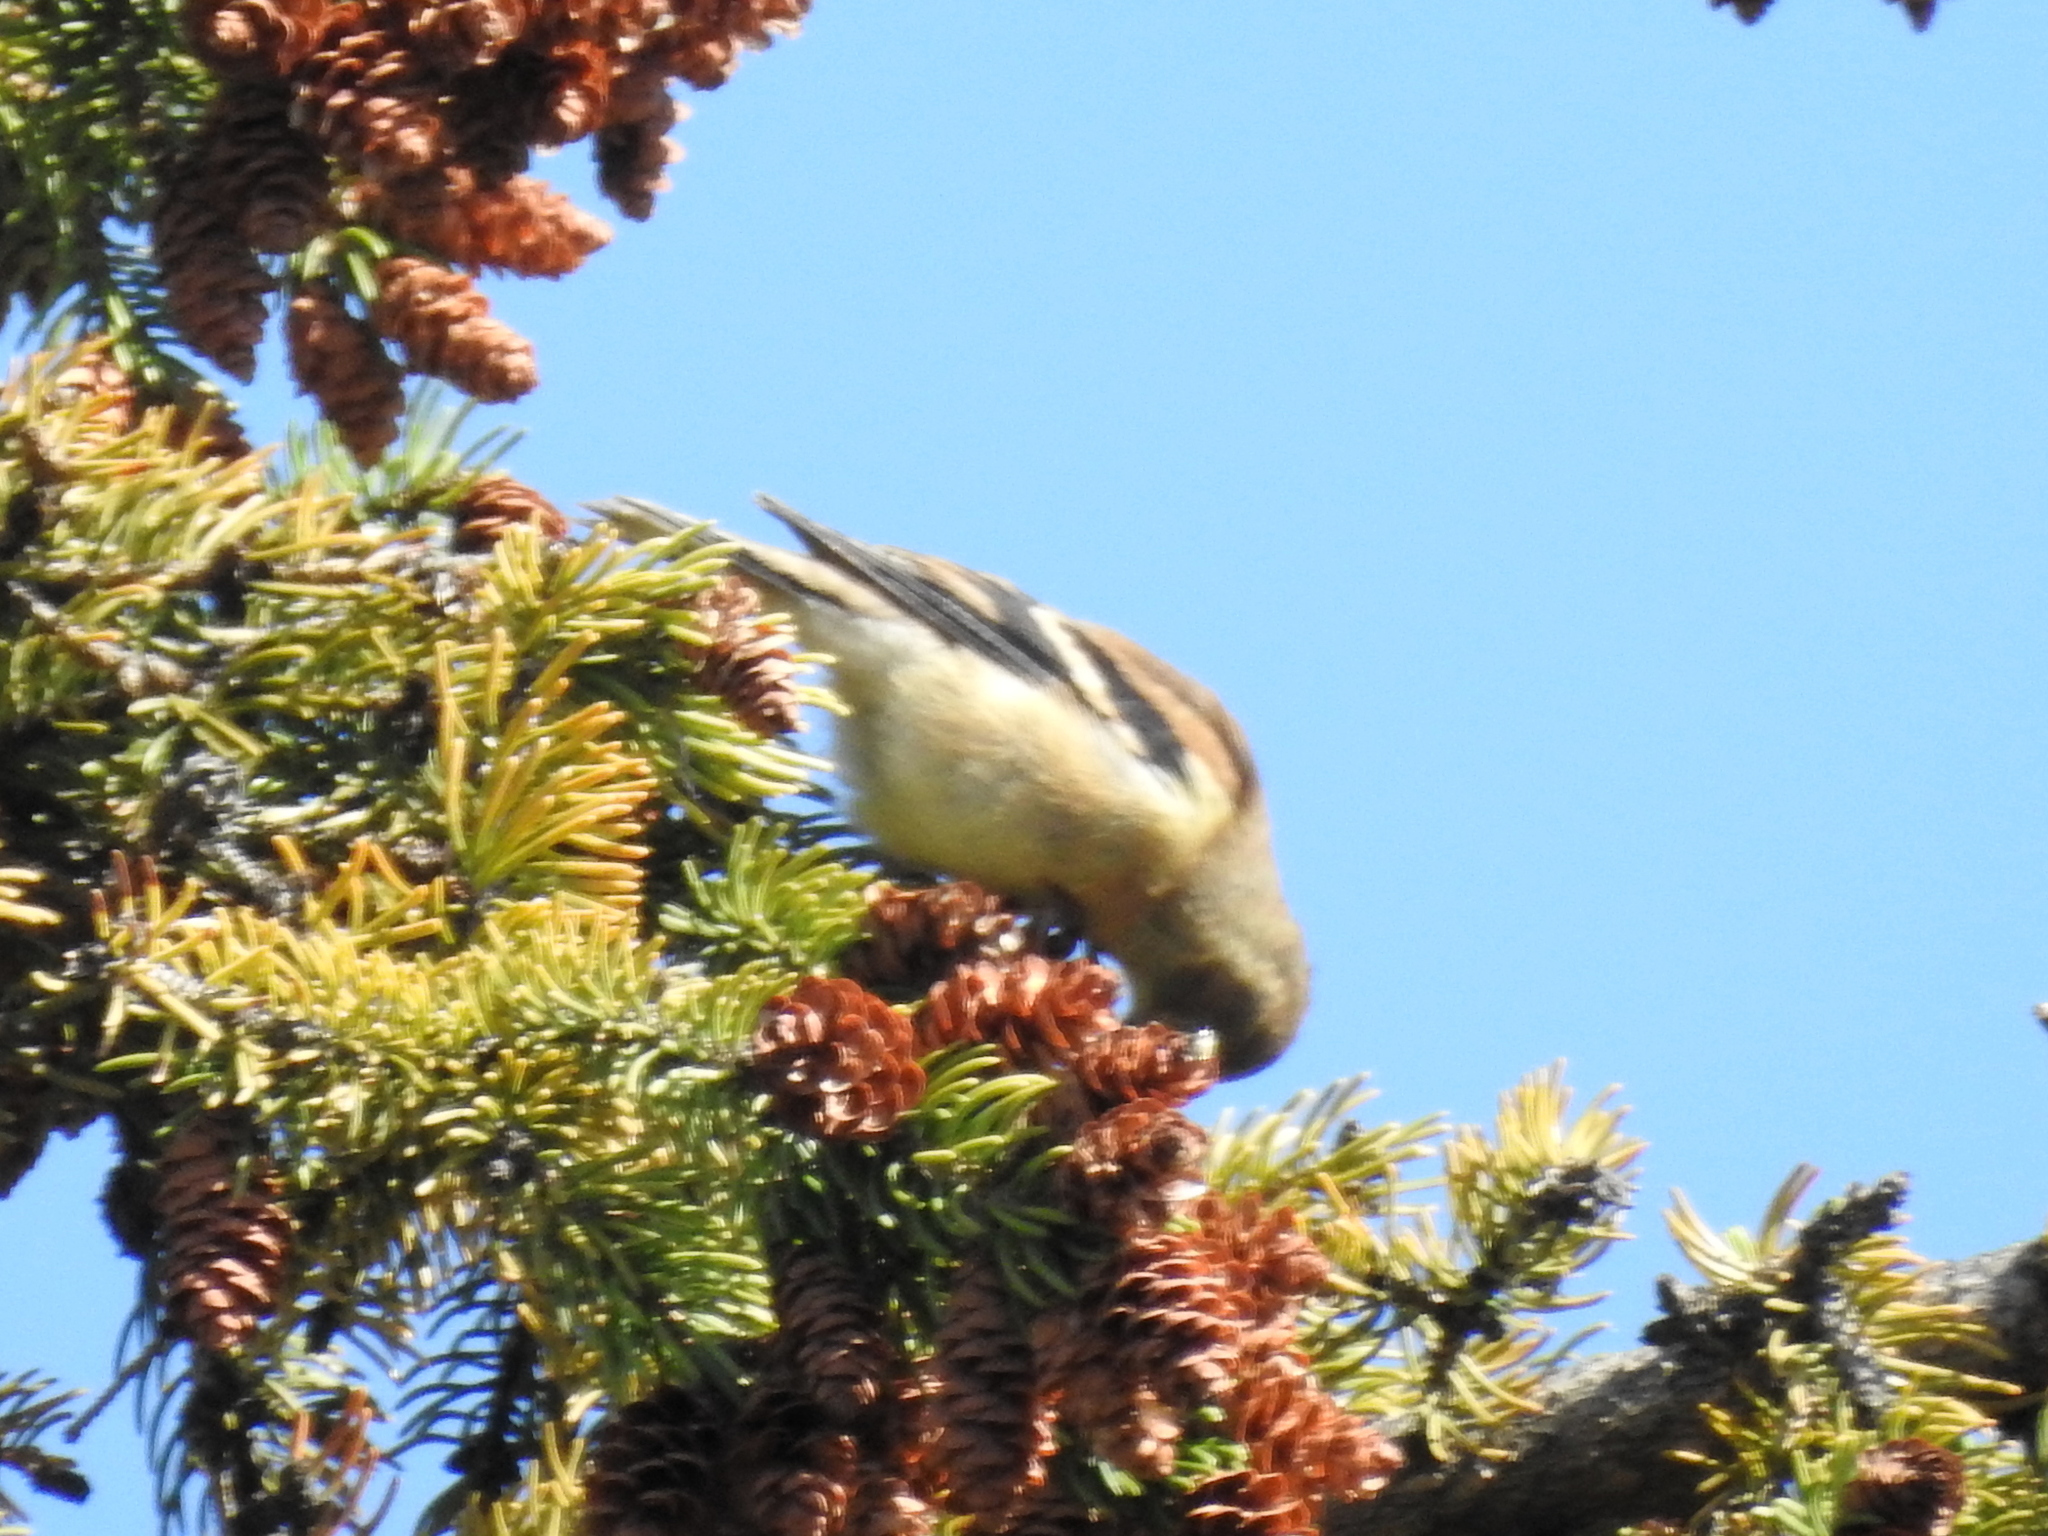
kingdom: Animalia
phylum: Chordata
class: Aves
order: Passeriformes
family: Fringillidae
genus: Spinus
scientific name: Spinus tristis
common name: American goldfinch
